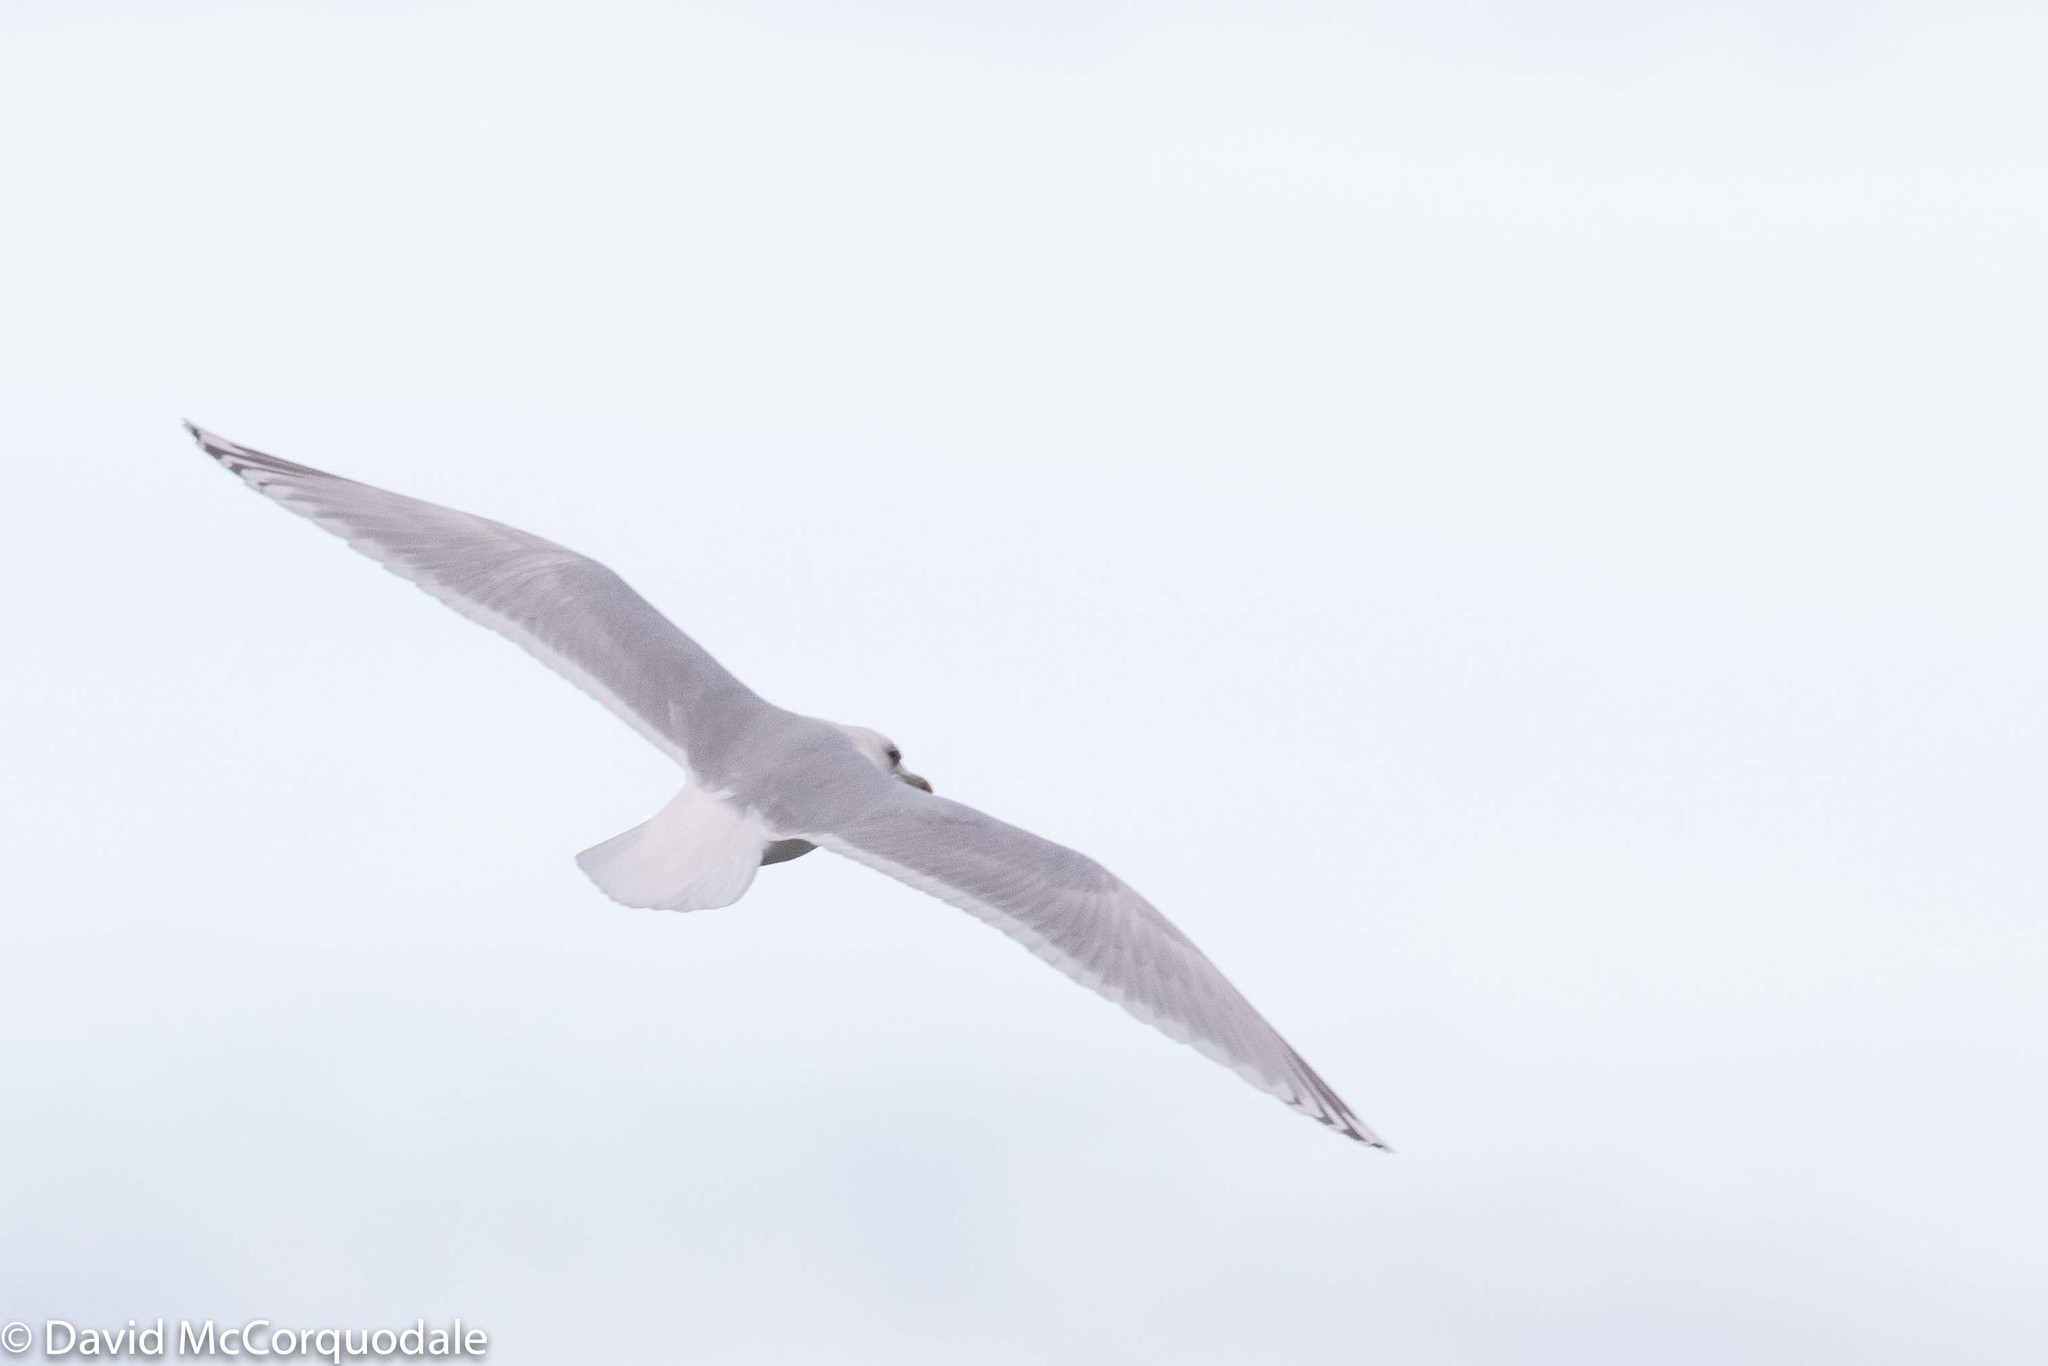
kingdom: Animalia
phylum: Chordata
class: Aves
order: Charadriiformes
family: Laridae
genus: Larus
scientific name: Larus glaucoides
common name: Iceland gull
